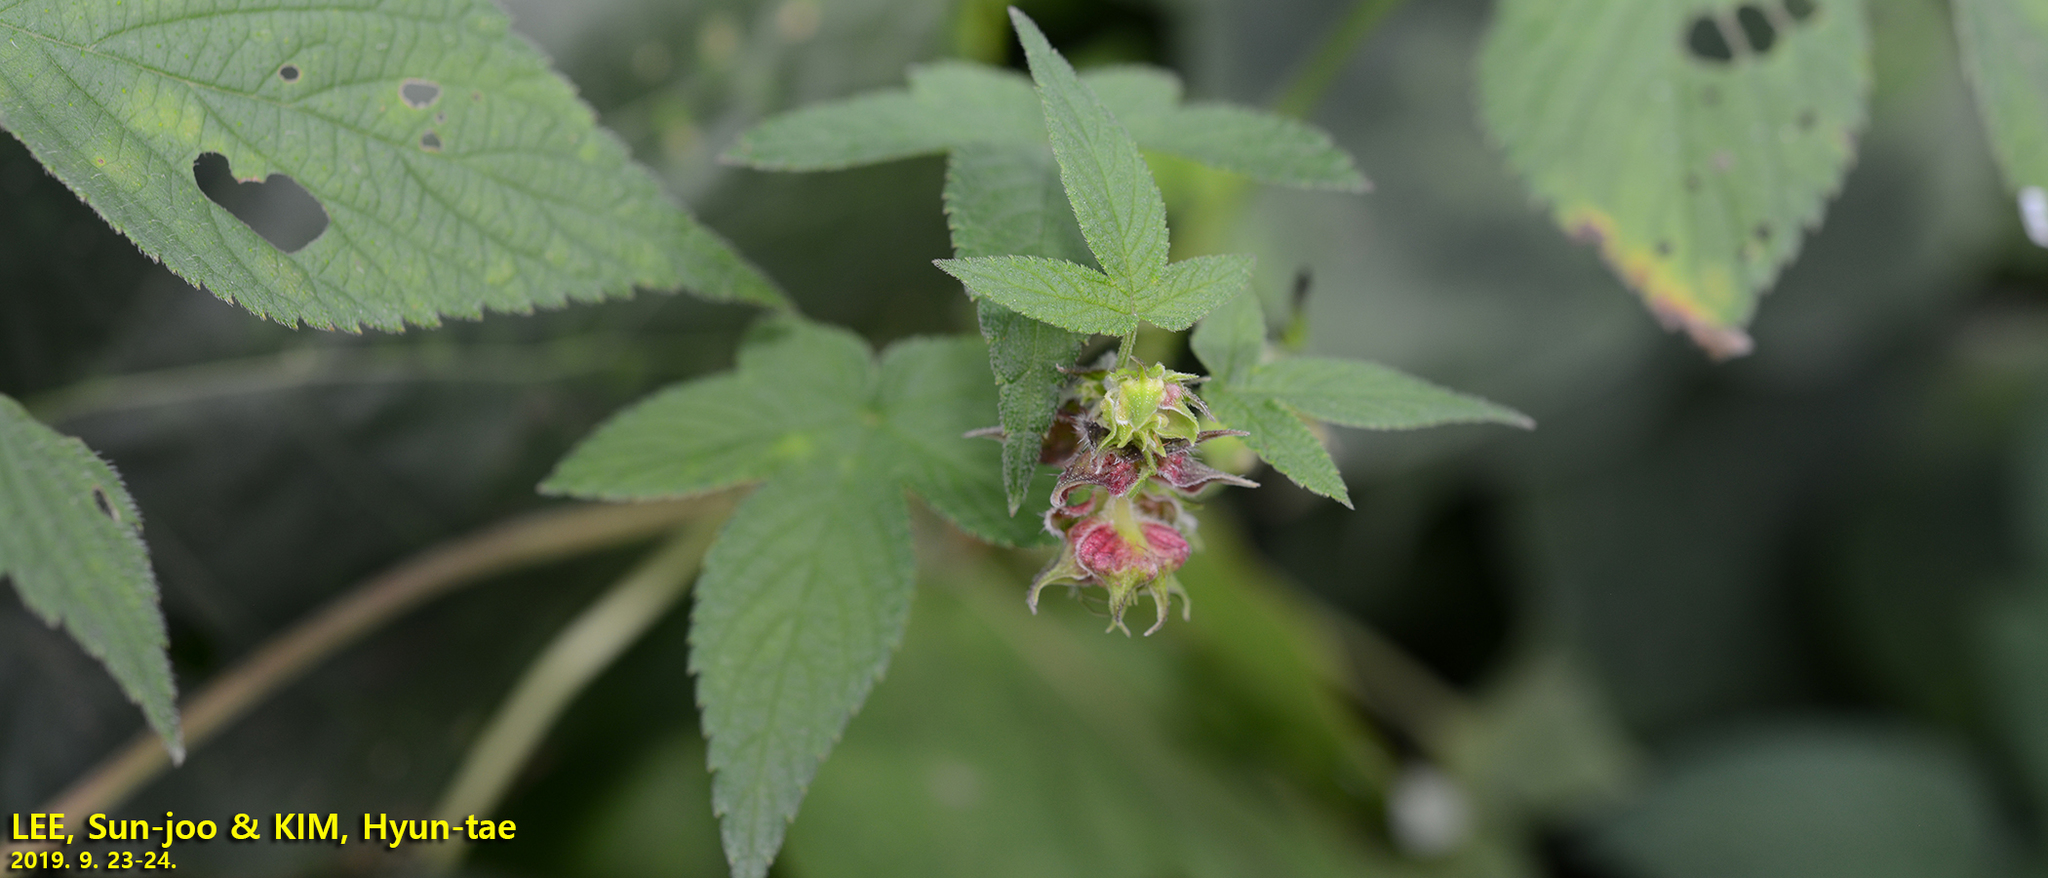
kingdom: Plantae
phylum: Tracheophyta
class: Magnoliopsida
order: Rosales
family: Cannabaceae
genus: Humulus
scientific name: Humulus scandens
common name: Japanese hop
